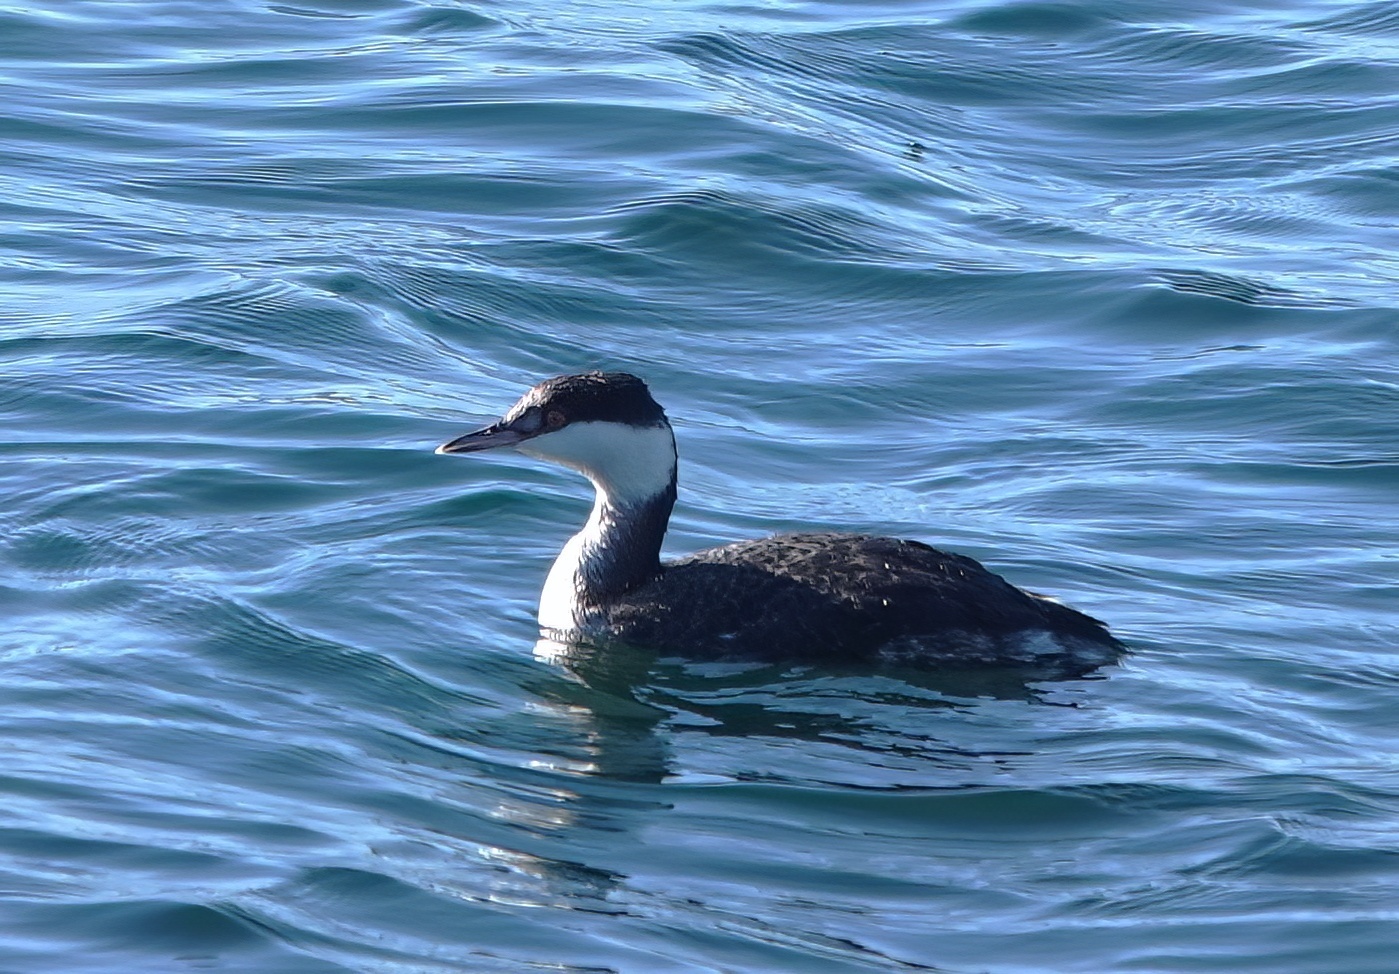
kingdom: Animalia
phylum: Chordata
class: Aves
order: Podicipediformes
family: Podicipedidae
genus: Podiceps
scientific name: Podiceps auritus
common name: Horned grebe
